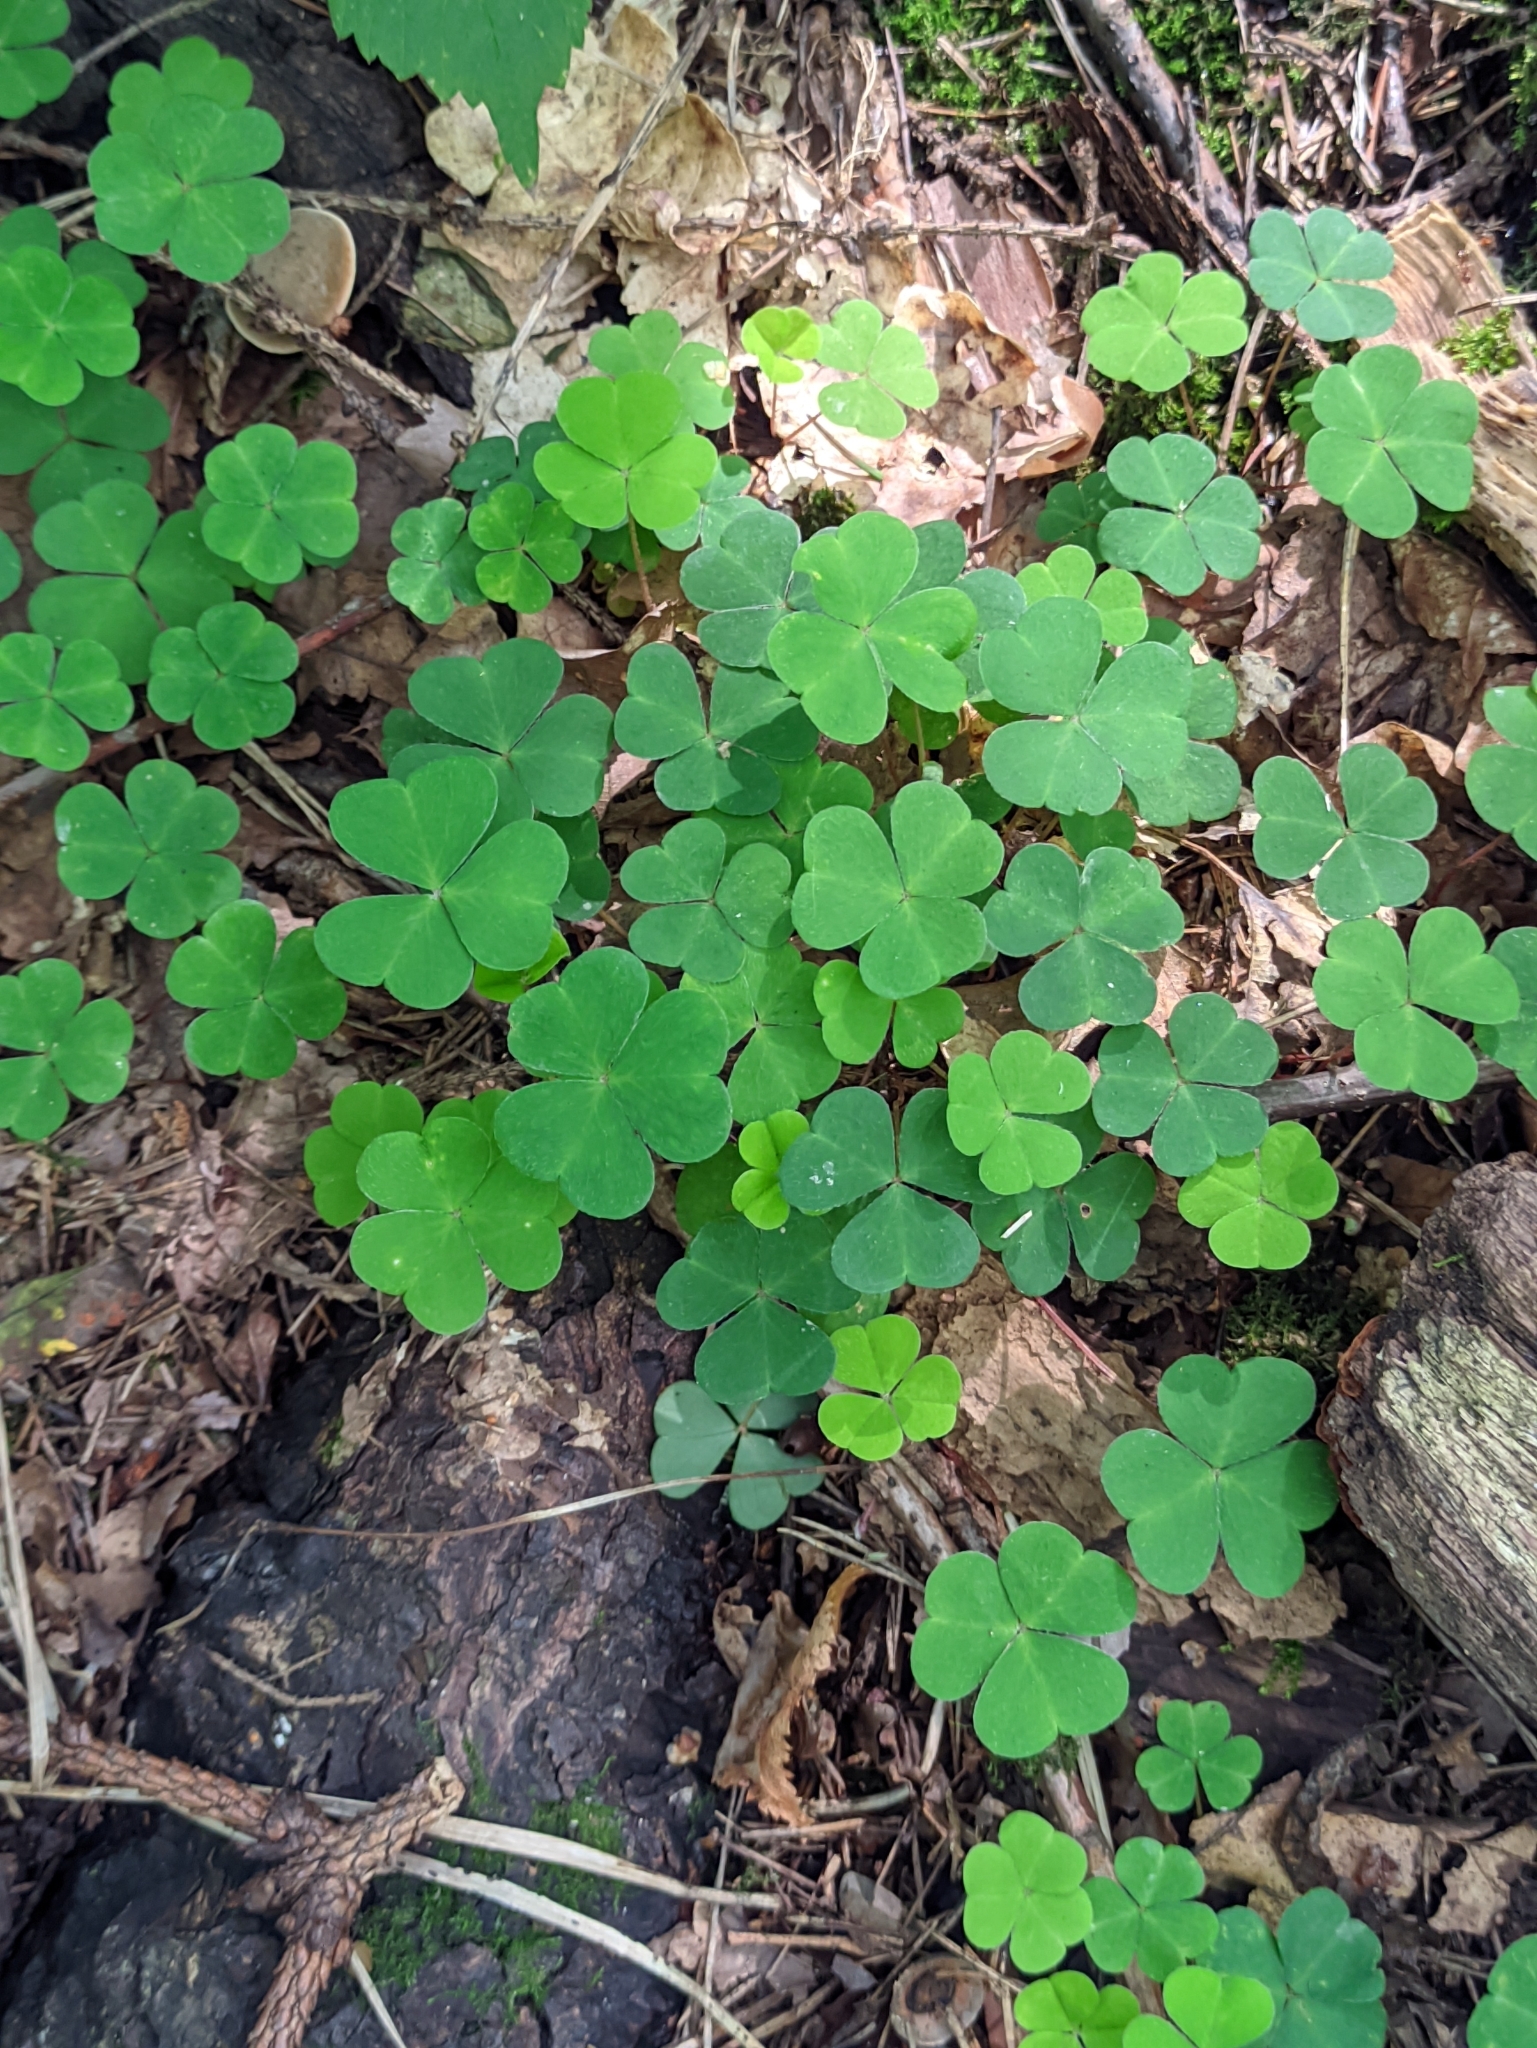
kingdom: Plantae
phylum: Tracheophyta
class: Magnoliopsida
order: Oxalidales
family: Oxalidaceae
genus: Oxalis
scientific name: Oxalis acetosella
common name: Wood-sorrel
